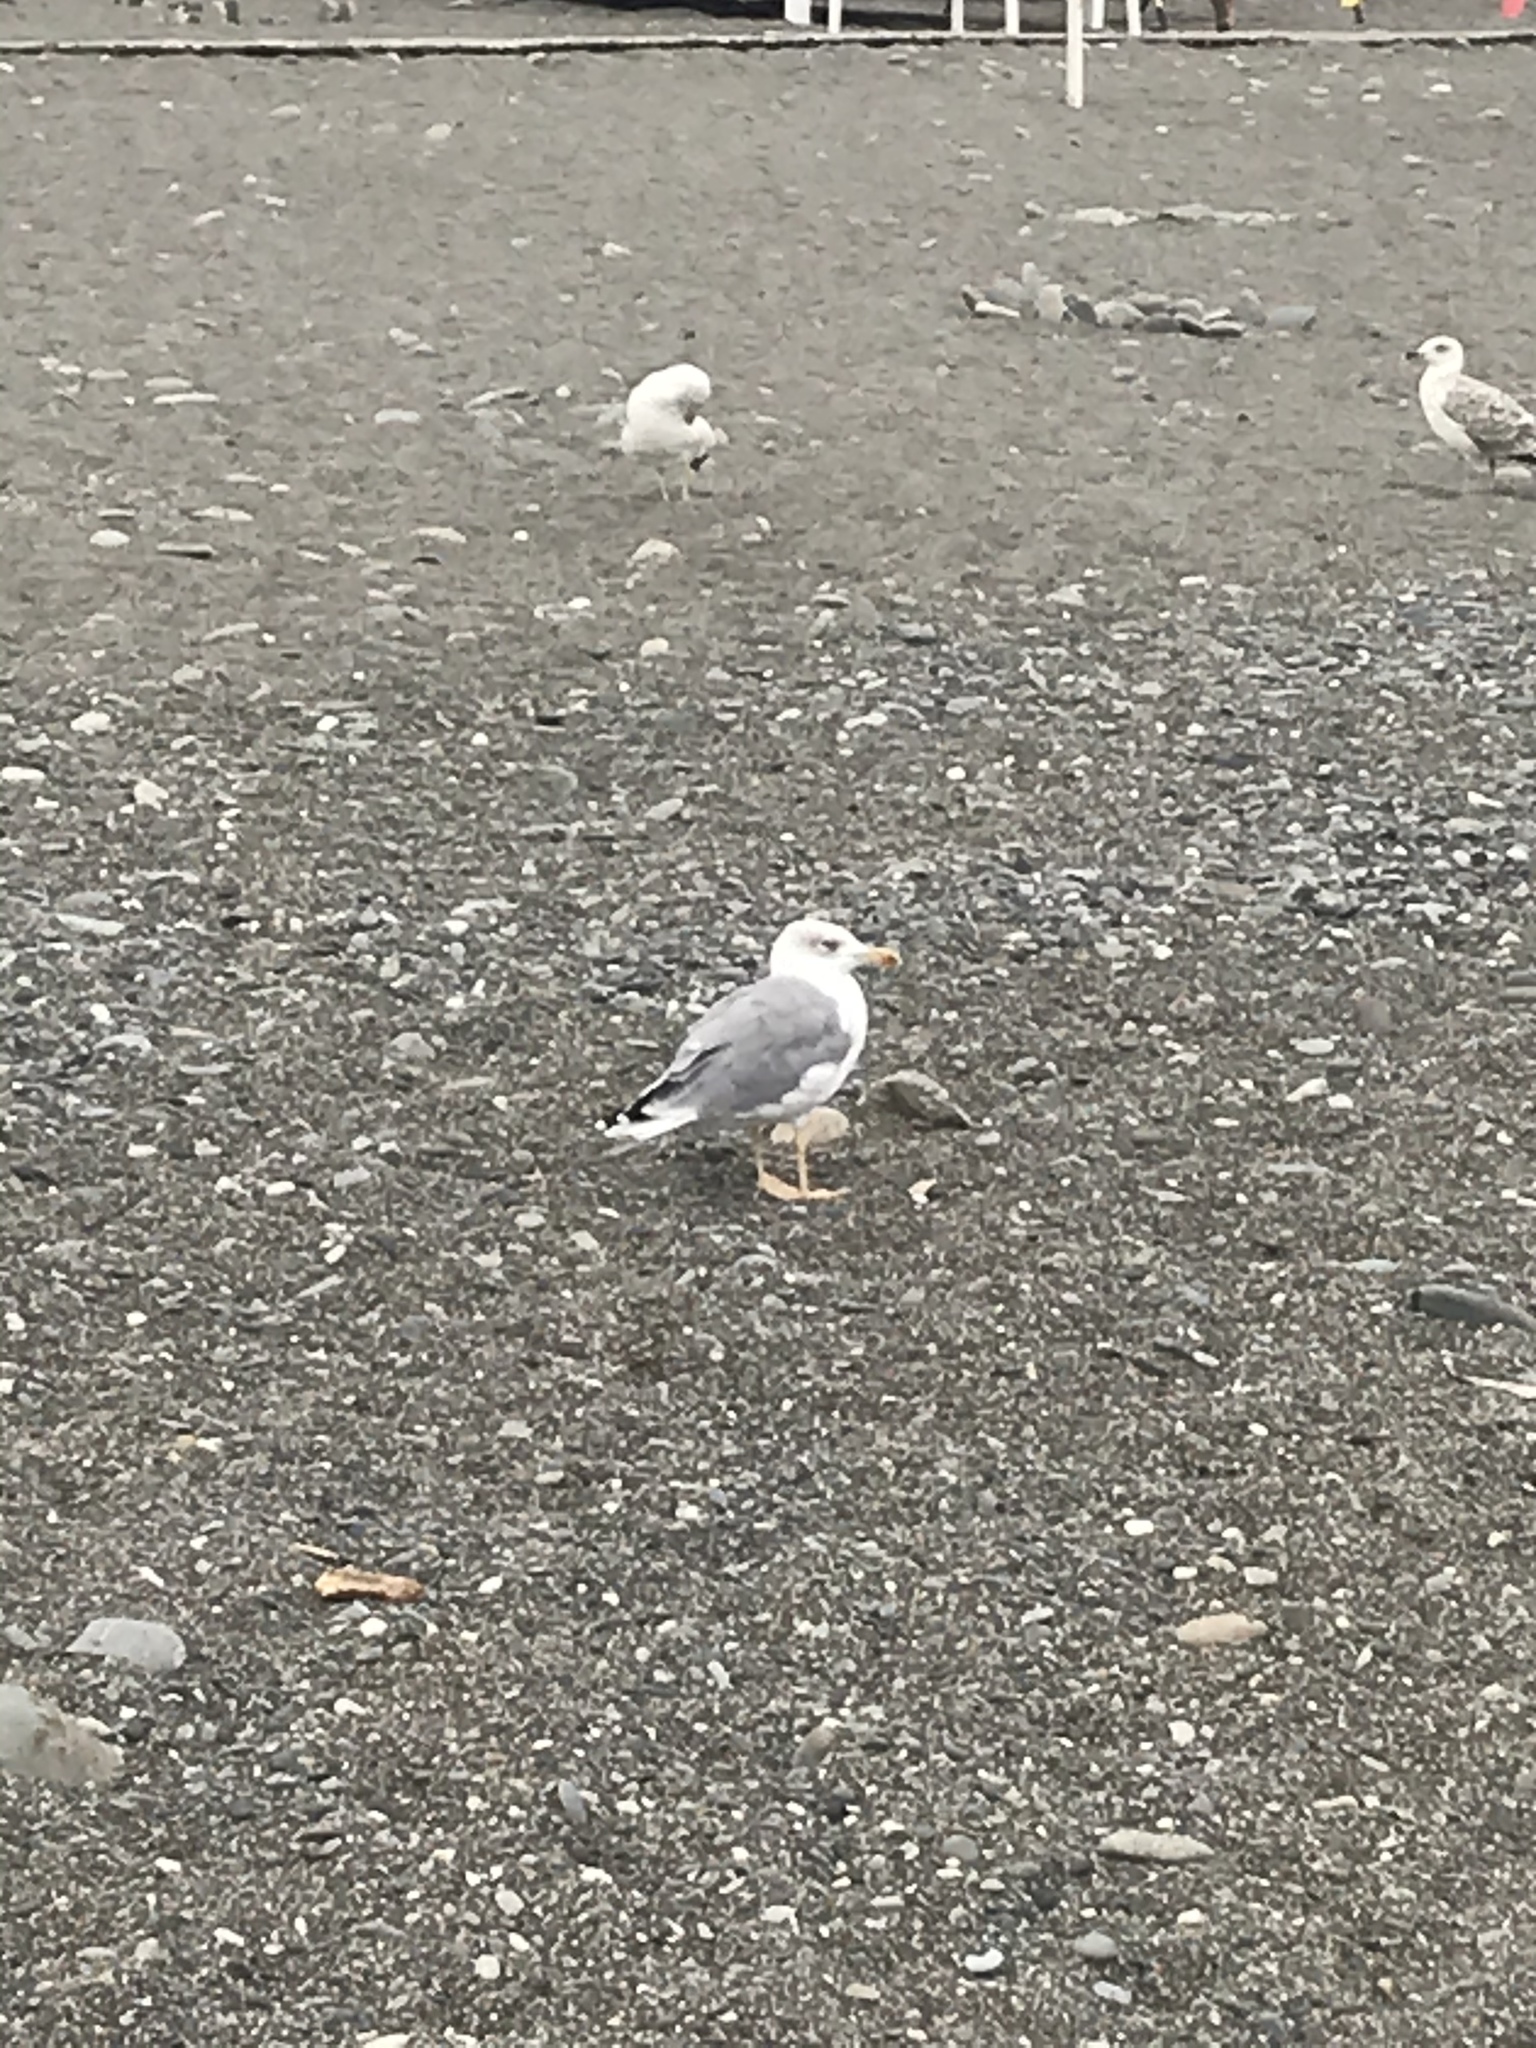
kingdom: Animalia
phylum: Chordata
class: Aves
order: Charadriiformes
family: Laridae
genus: Larus
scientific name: Larus michahellis
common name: Yellow-legged gull
